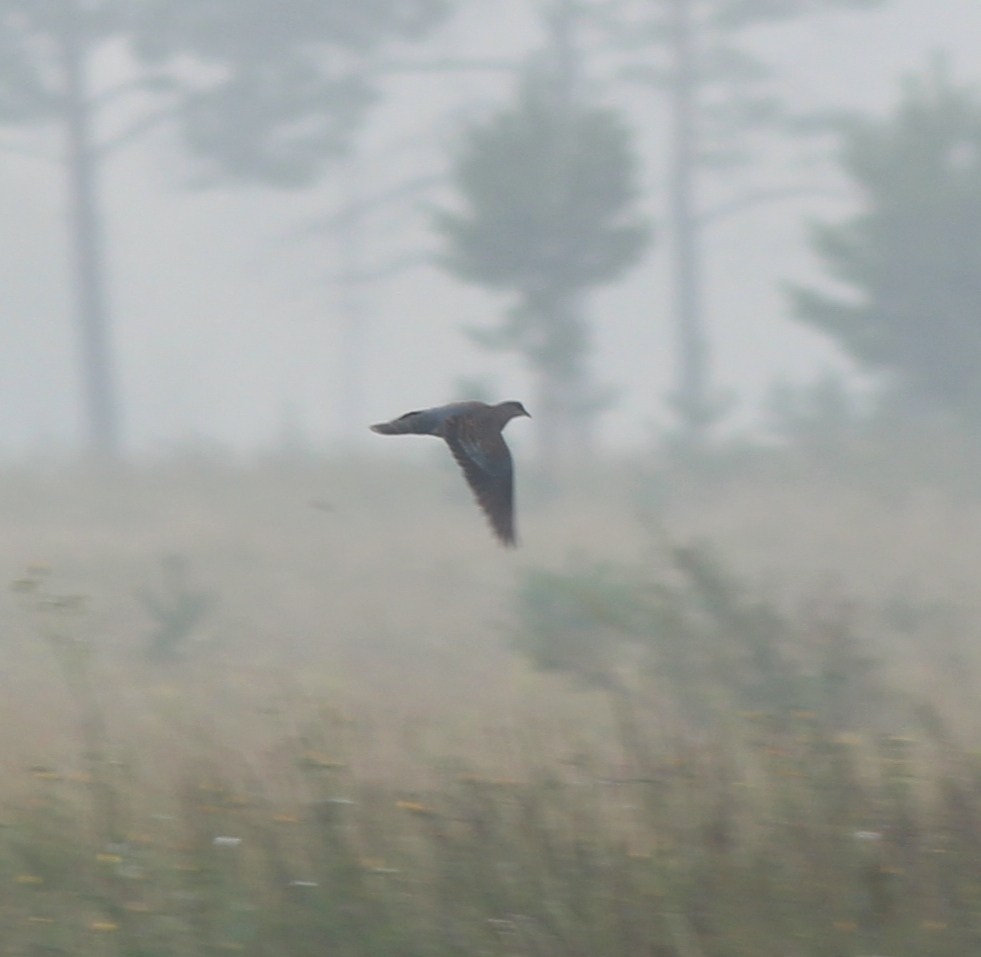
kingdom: Animalia
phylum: Chordata
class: Aves
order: Columbiformes
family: Columbidae
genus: Streptopelia
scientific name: Streptopelia orientalis
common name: Oriental turtle dove
